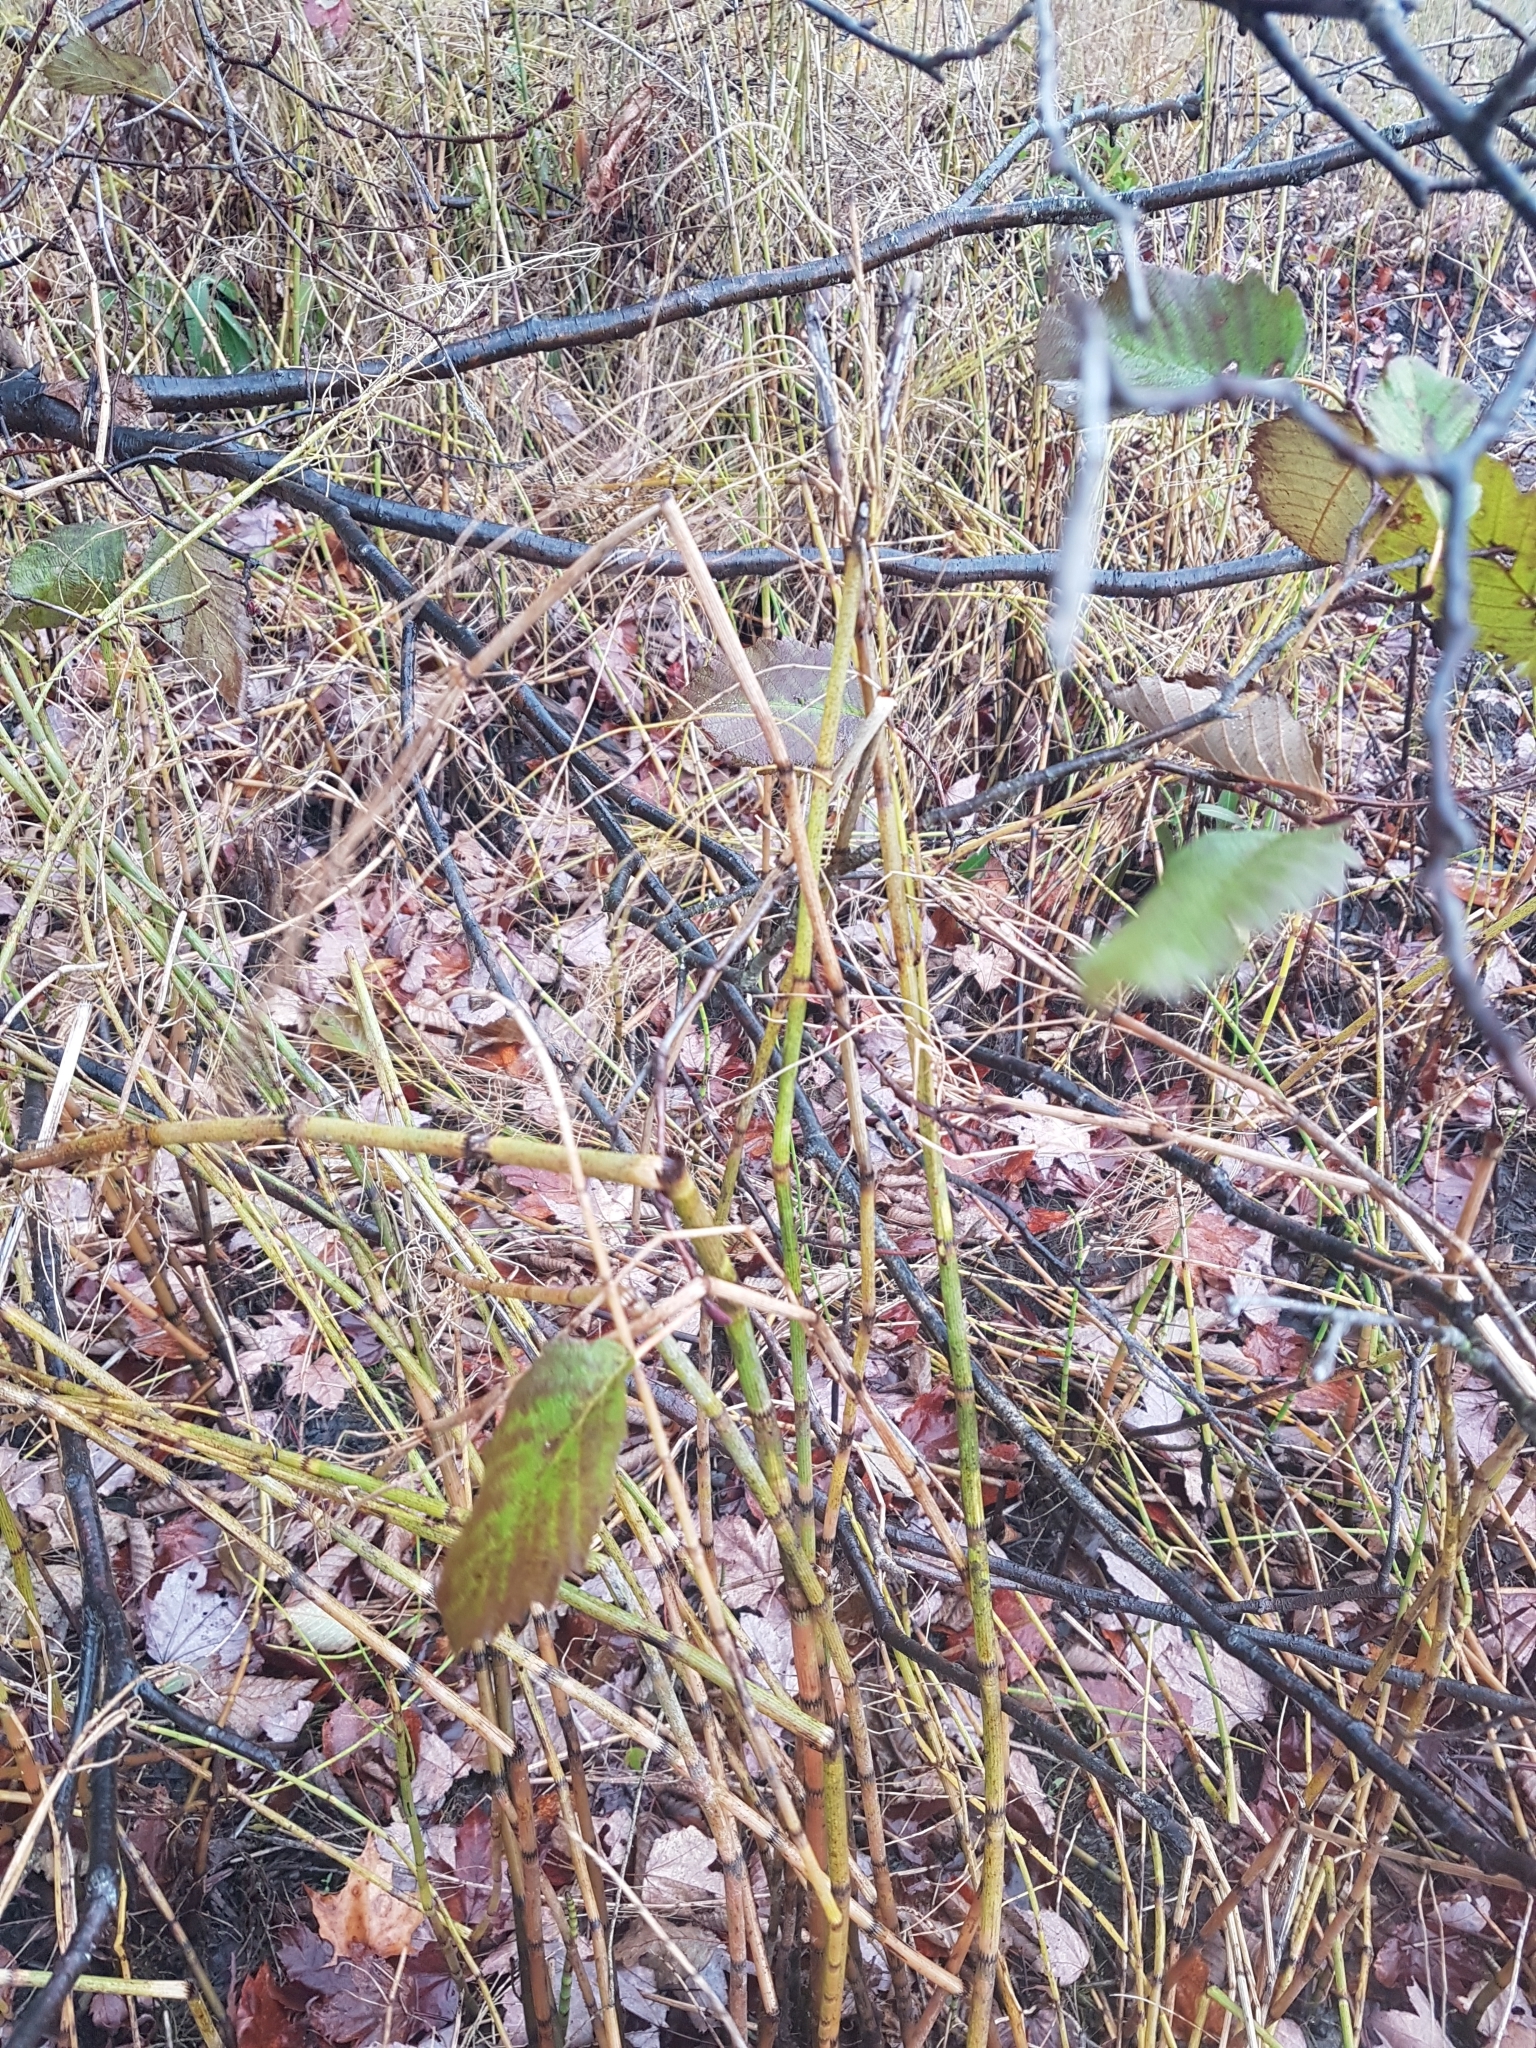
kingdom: Plantae
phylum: Tracheophyta
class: Polypodiopsida
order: Equisetales
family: Equisetaceae
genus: Equisetum
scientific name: Equisetum fluviatile
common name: Water horsetail
